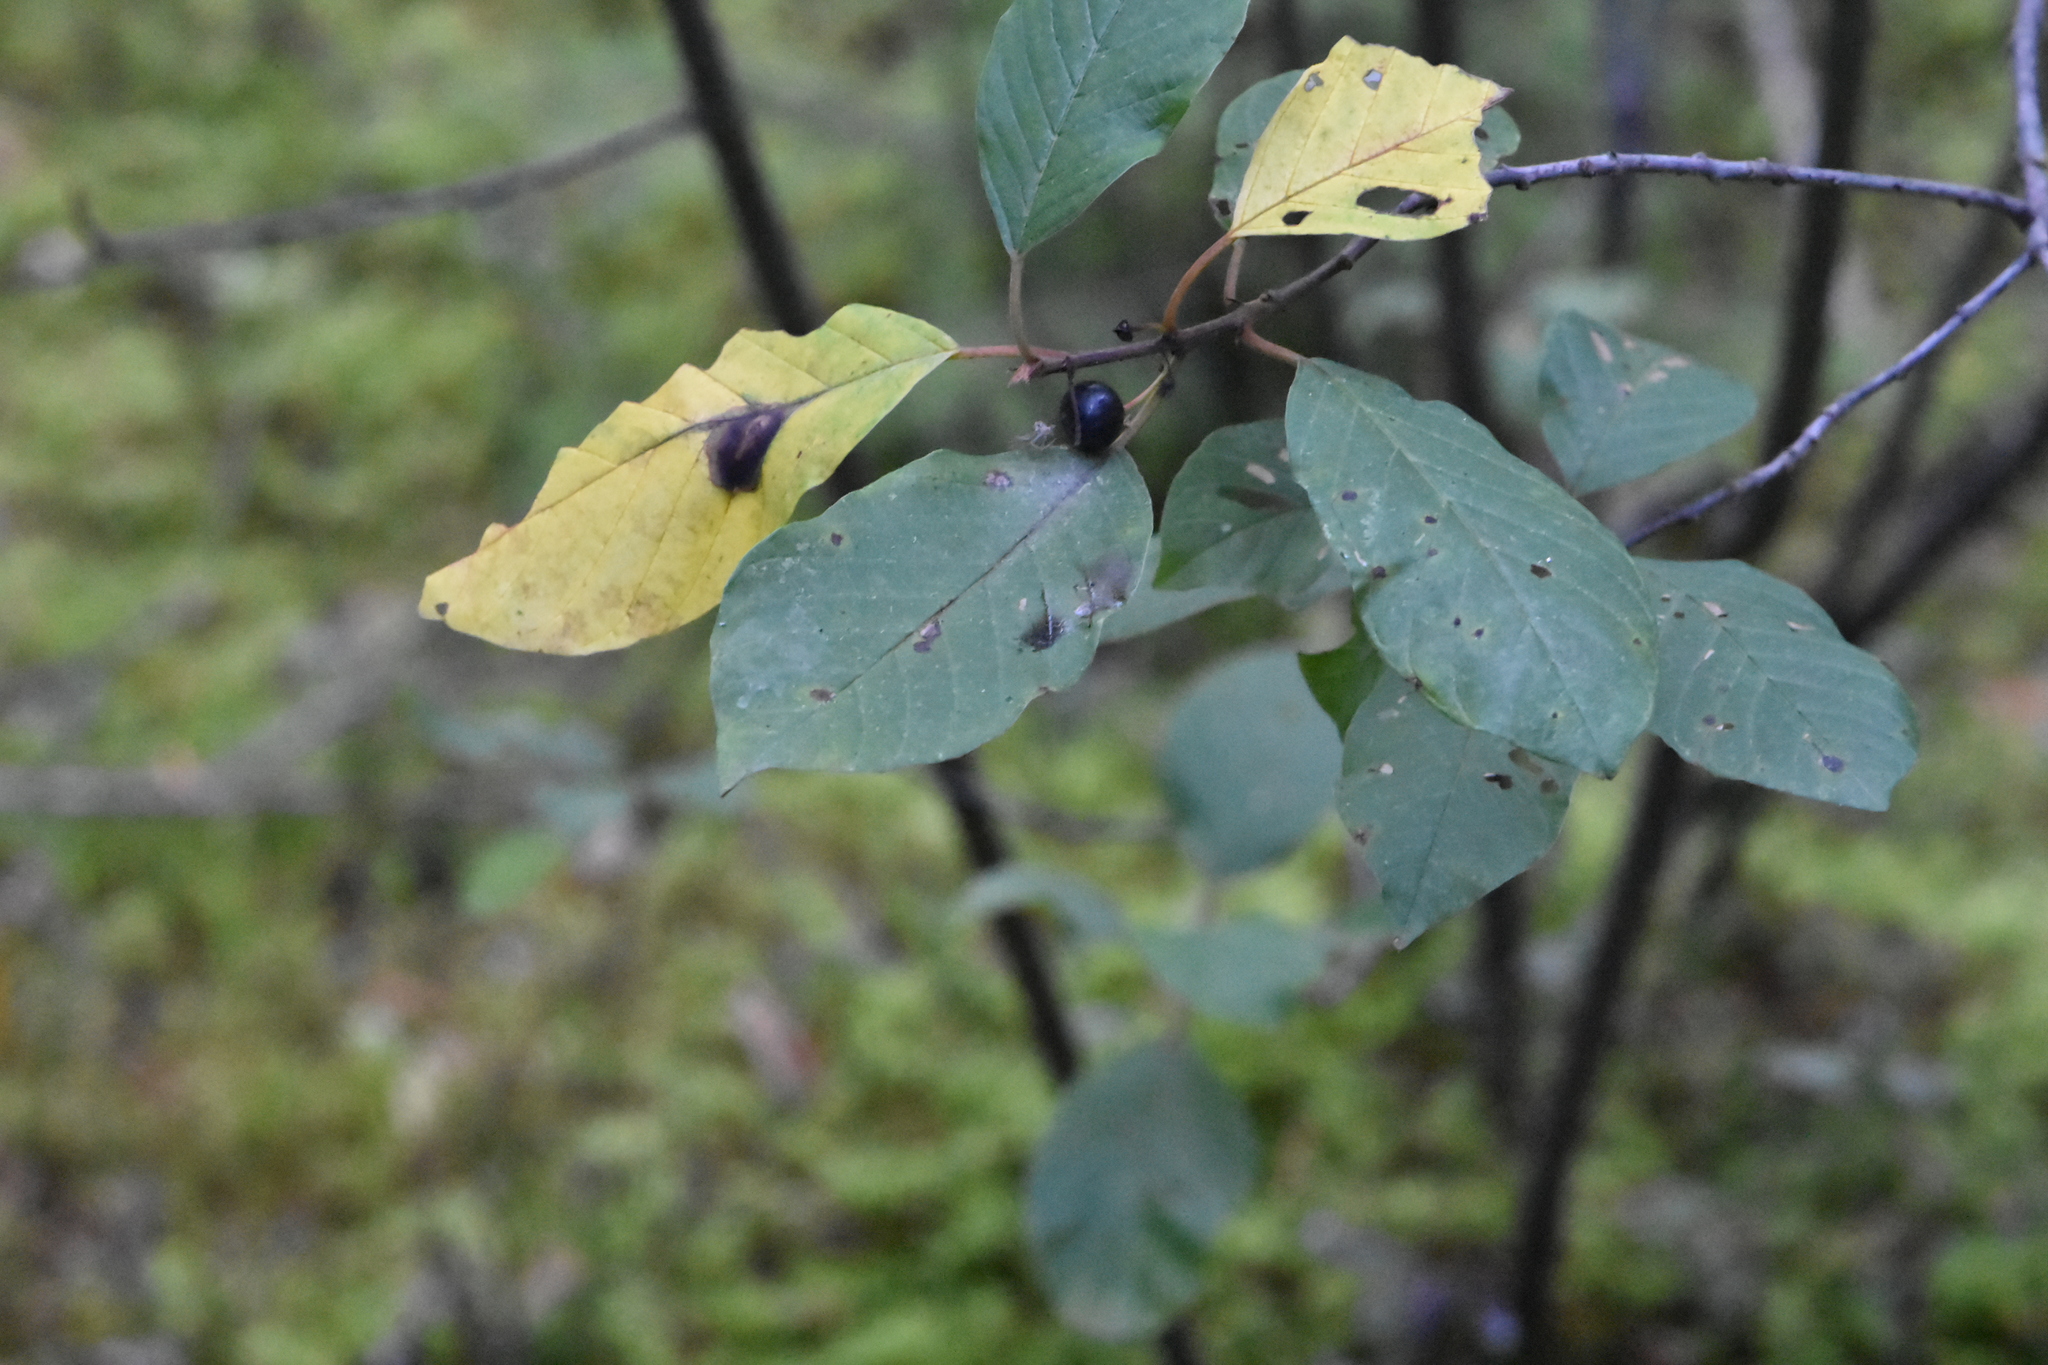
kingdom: Plantae
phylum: Tracheophyta
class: Magnoliopsida
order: Rosales
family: Rhamnaceae
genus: Frangula
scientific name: Frangula alnus
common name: Alder buckthorn
